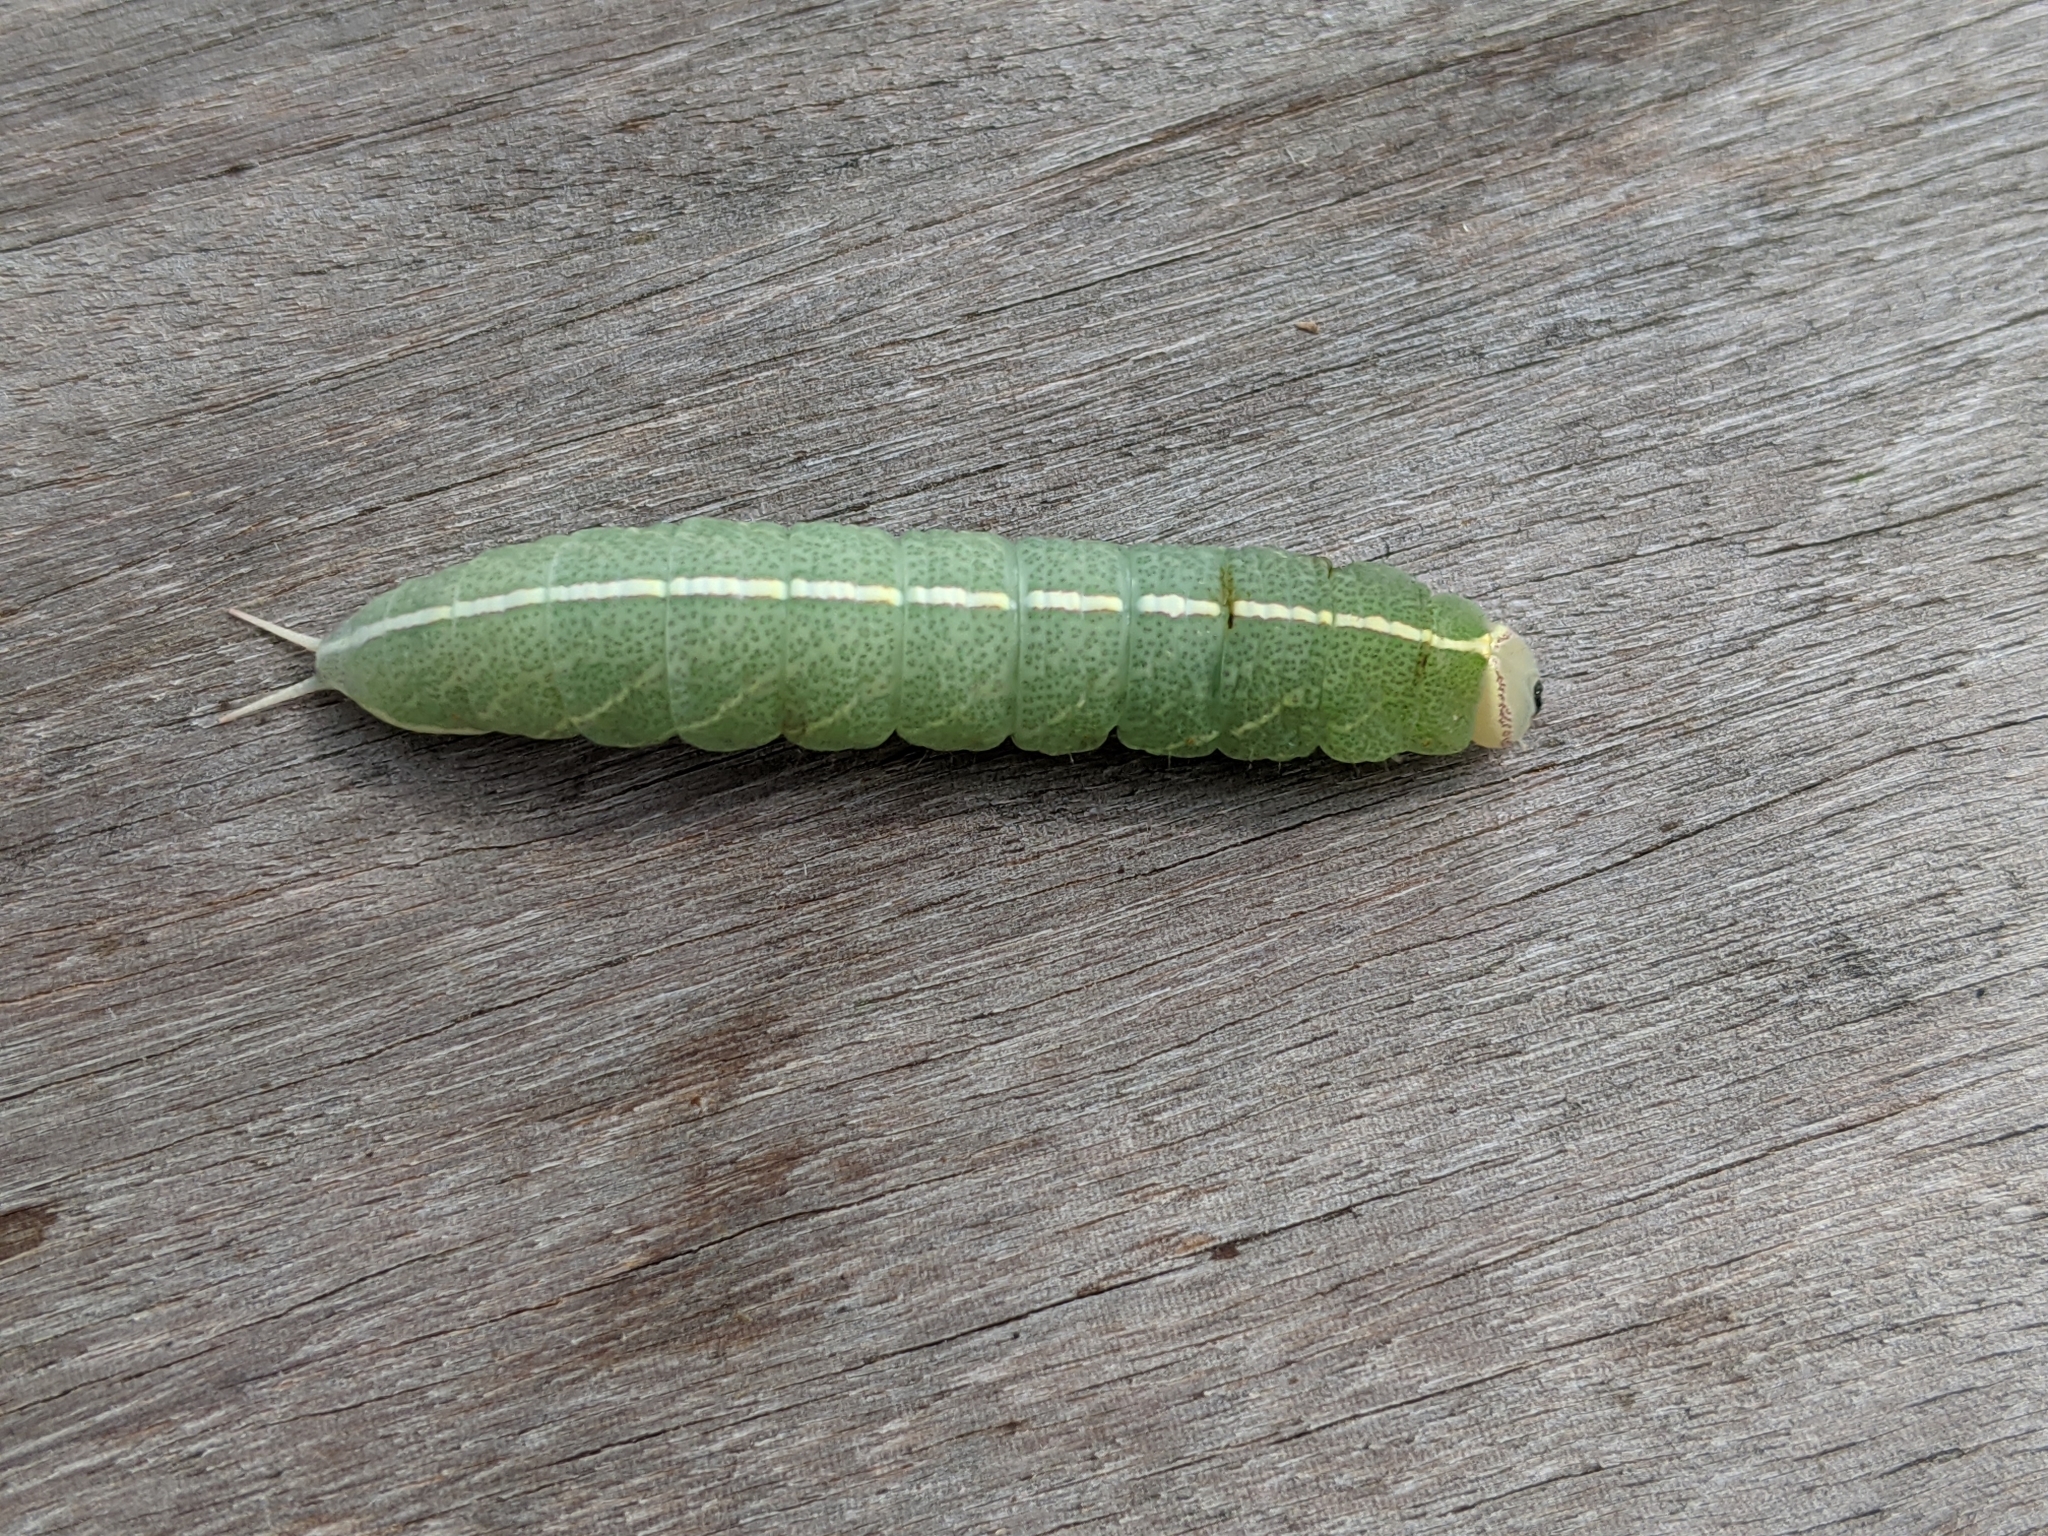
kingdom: Animalia
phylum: Arthropoda
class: Insecta
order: Lepidoptera
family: Notodontidae
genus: Macrurocampa
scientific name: Macrurocampa marthesia
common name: Mottled prominent
